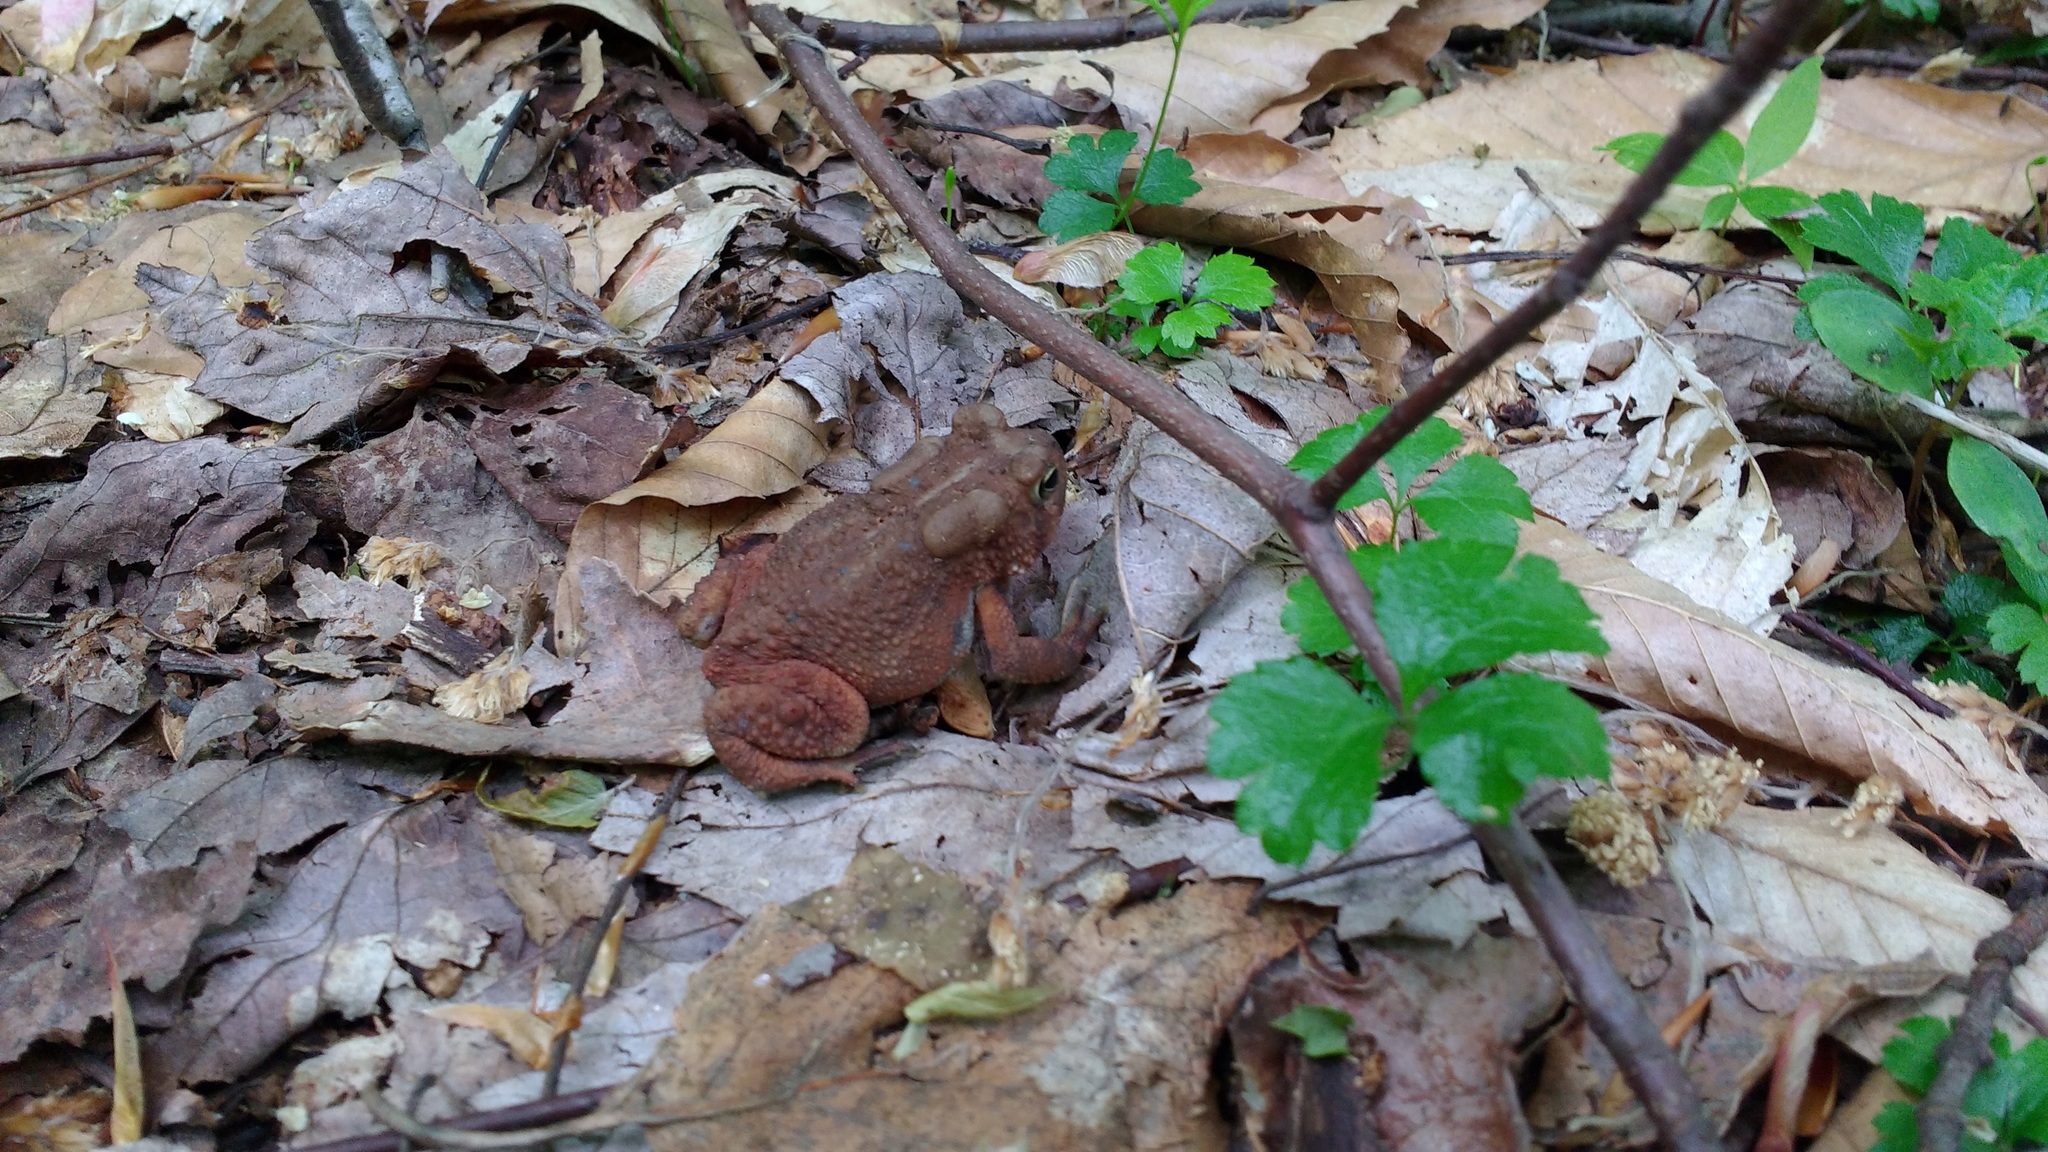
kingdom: Animalia
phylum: Chordata
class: Amphibia
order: Anura
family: Bufonidae
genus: Anaxyrus
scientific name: Anaxyrus americanus
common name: American toad
